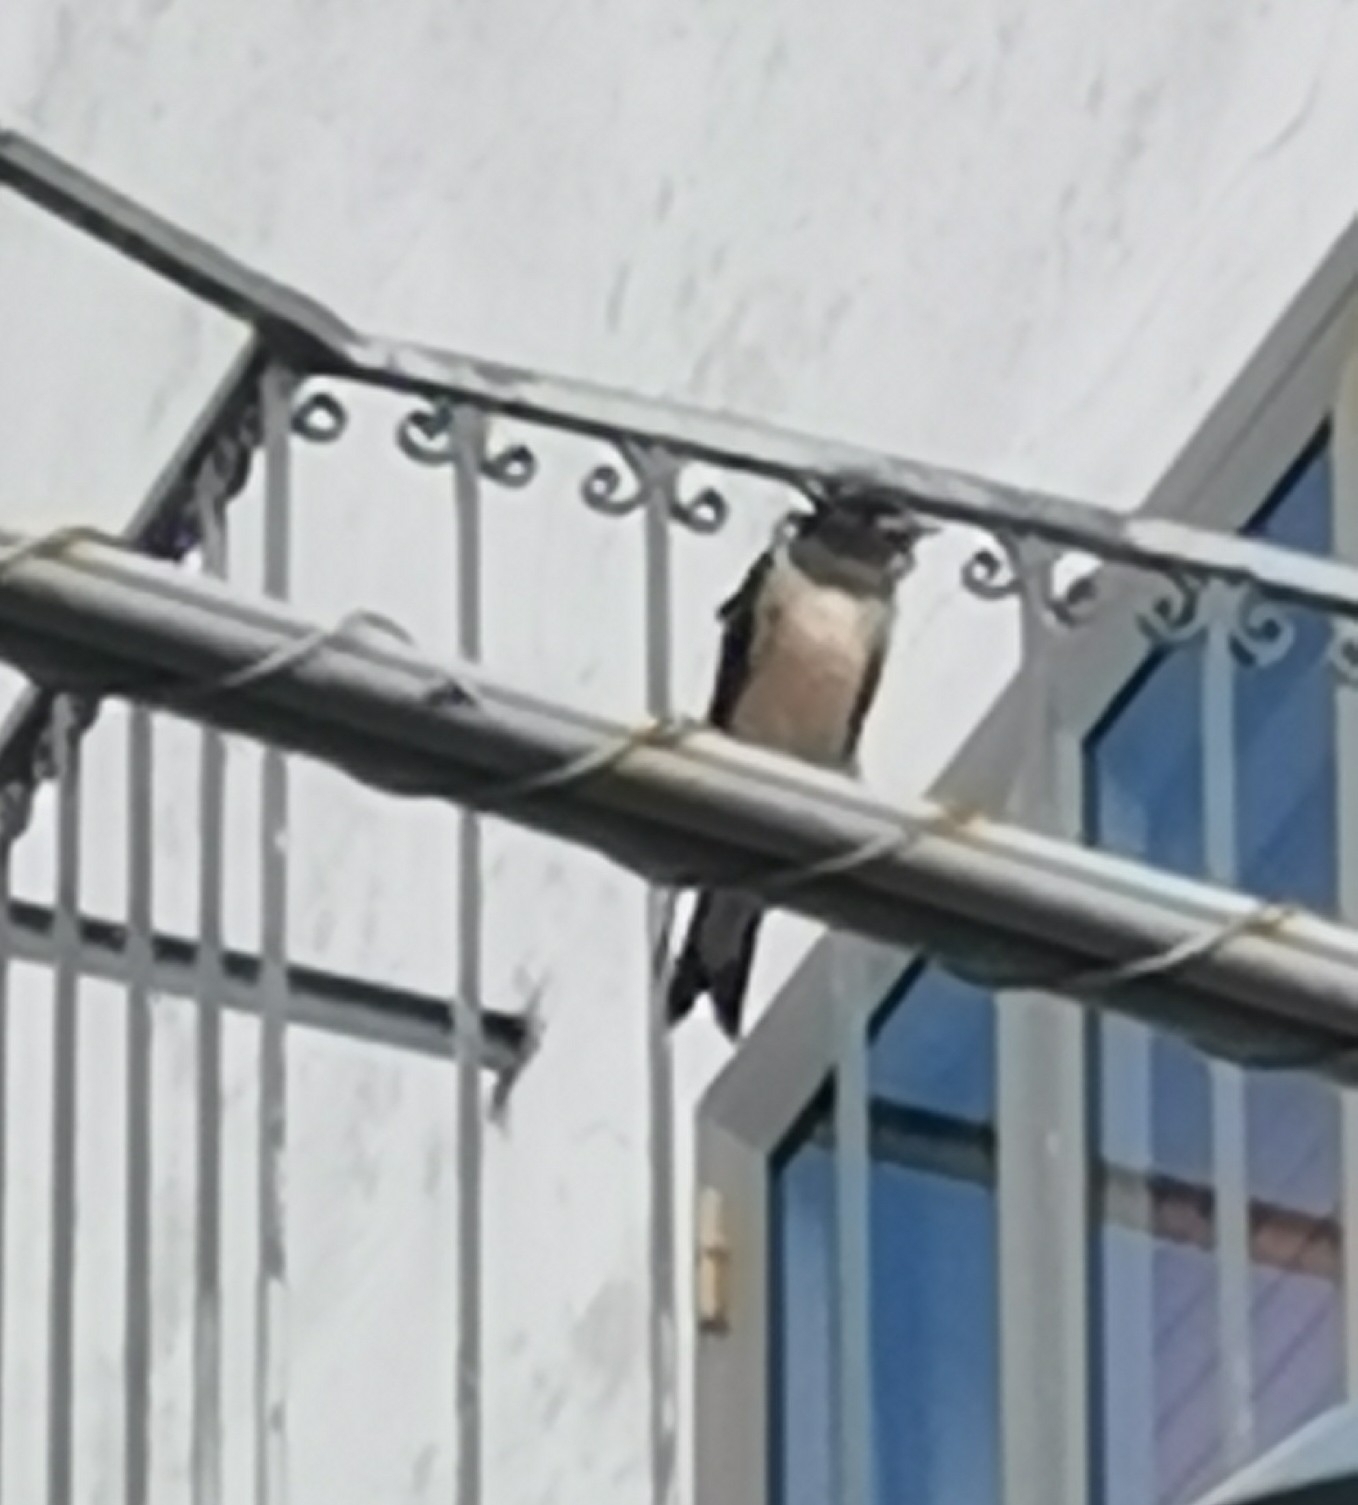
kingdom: Animalia
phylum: Chordata
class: Aves
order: Passeriformes
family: Hirundinidae
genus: Hirundo
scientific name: Hirundo rustica
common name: Barn swallow
